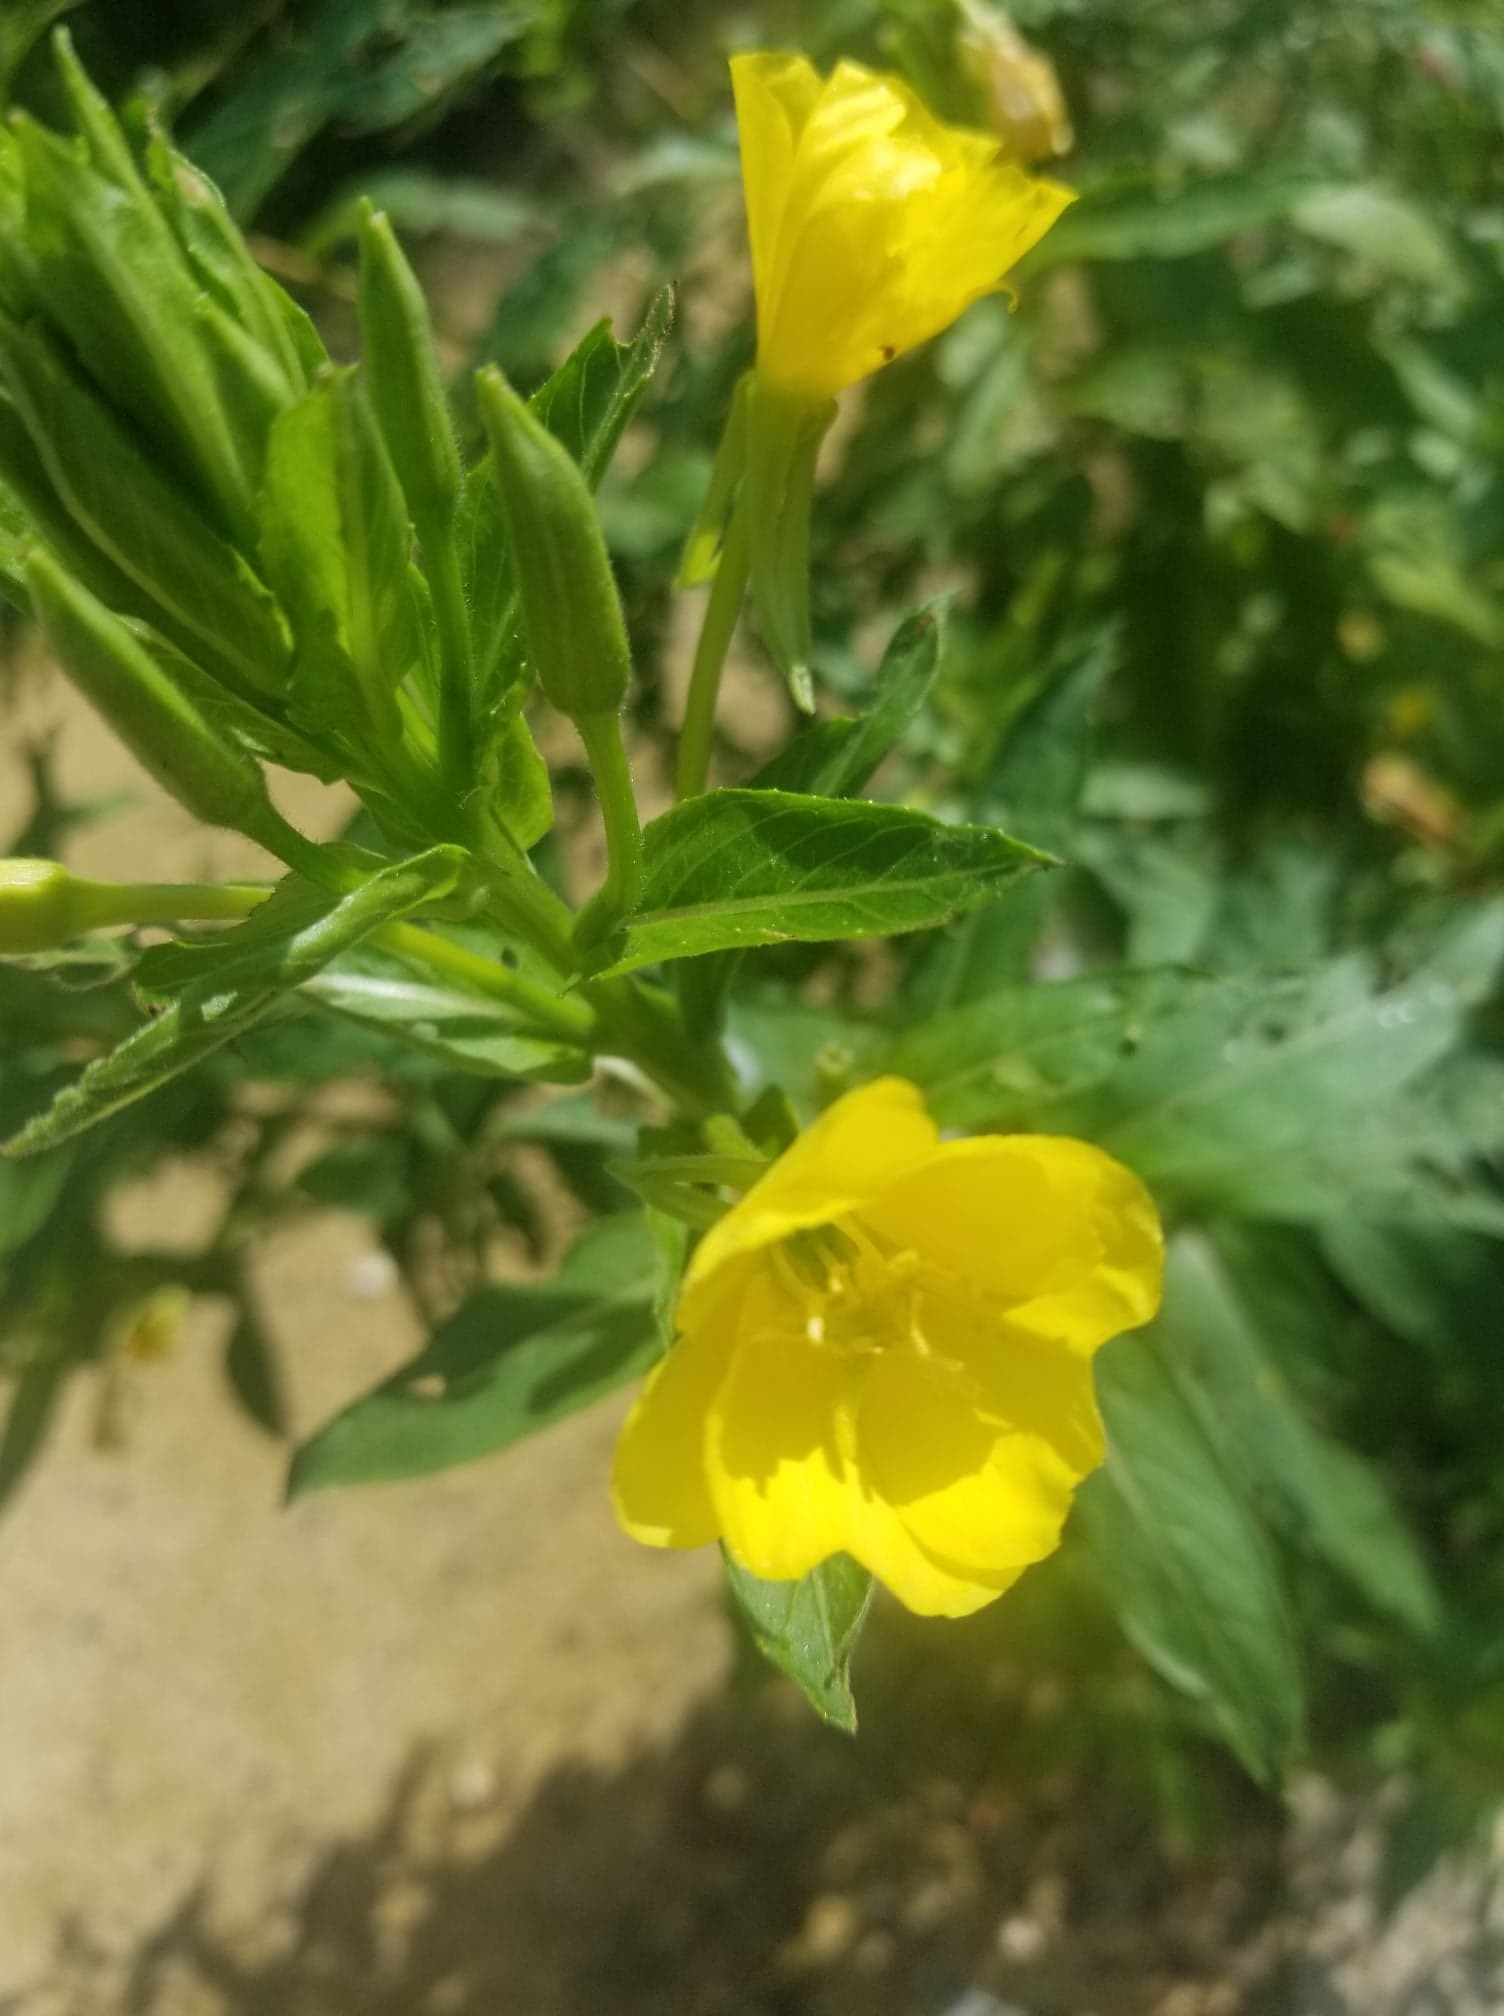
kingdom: Plantae
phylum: Tracheophyta
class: Magnoliopsida
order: Myrtales
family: Onagraceae
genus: Oenothera
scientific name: Oenothera biennis
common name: Common evening-primrose
